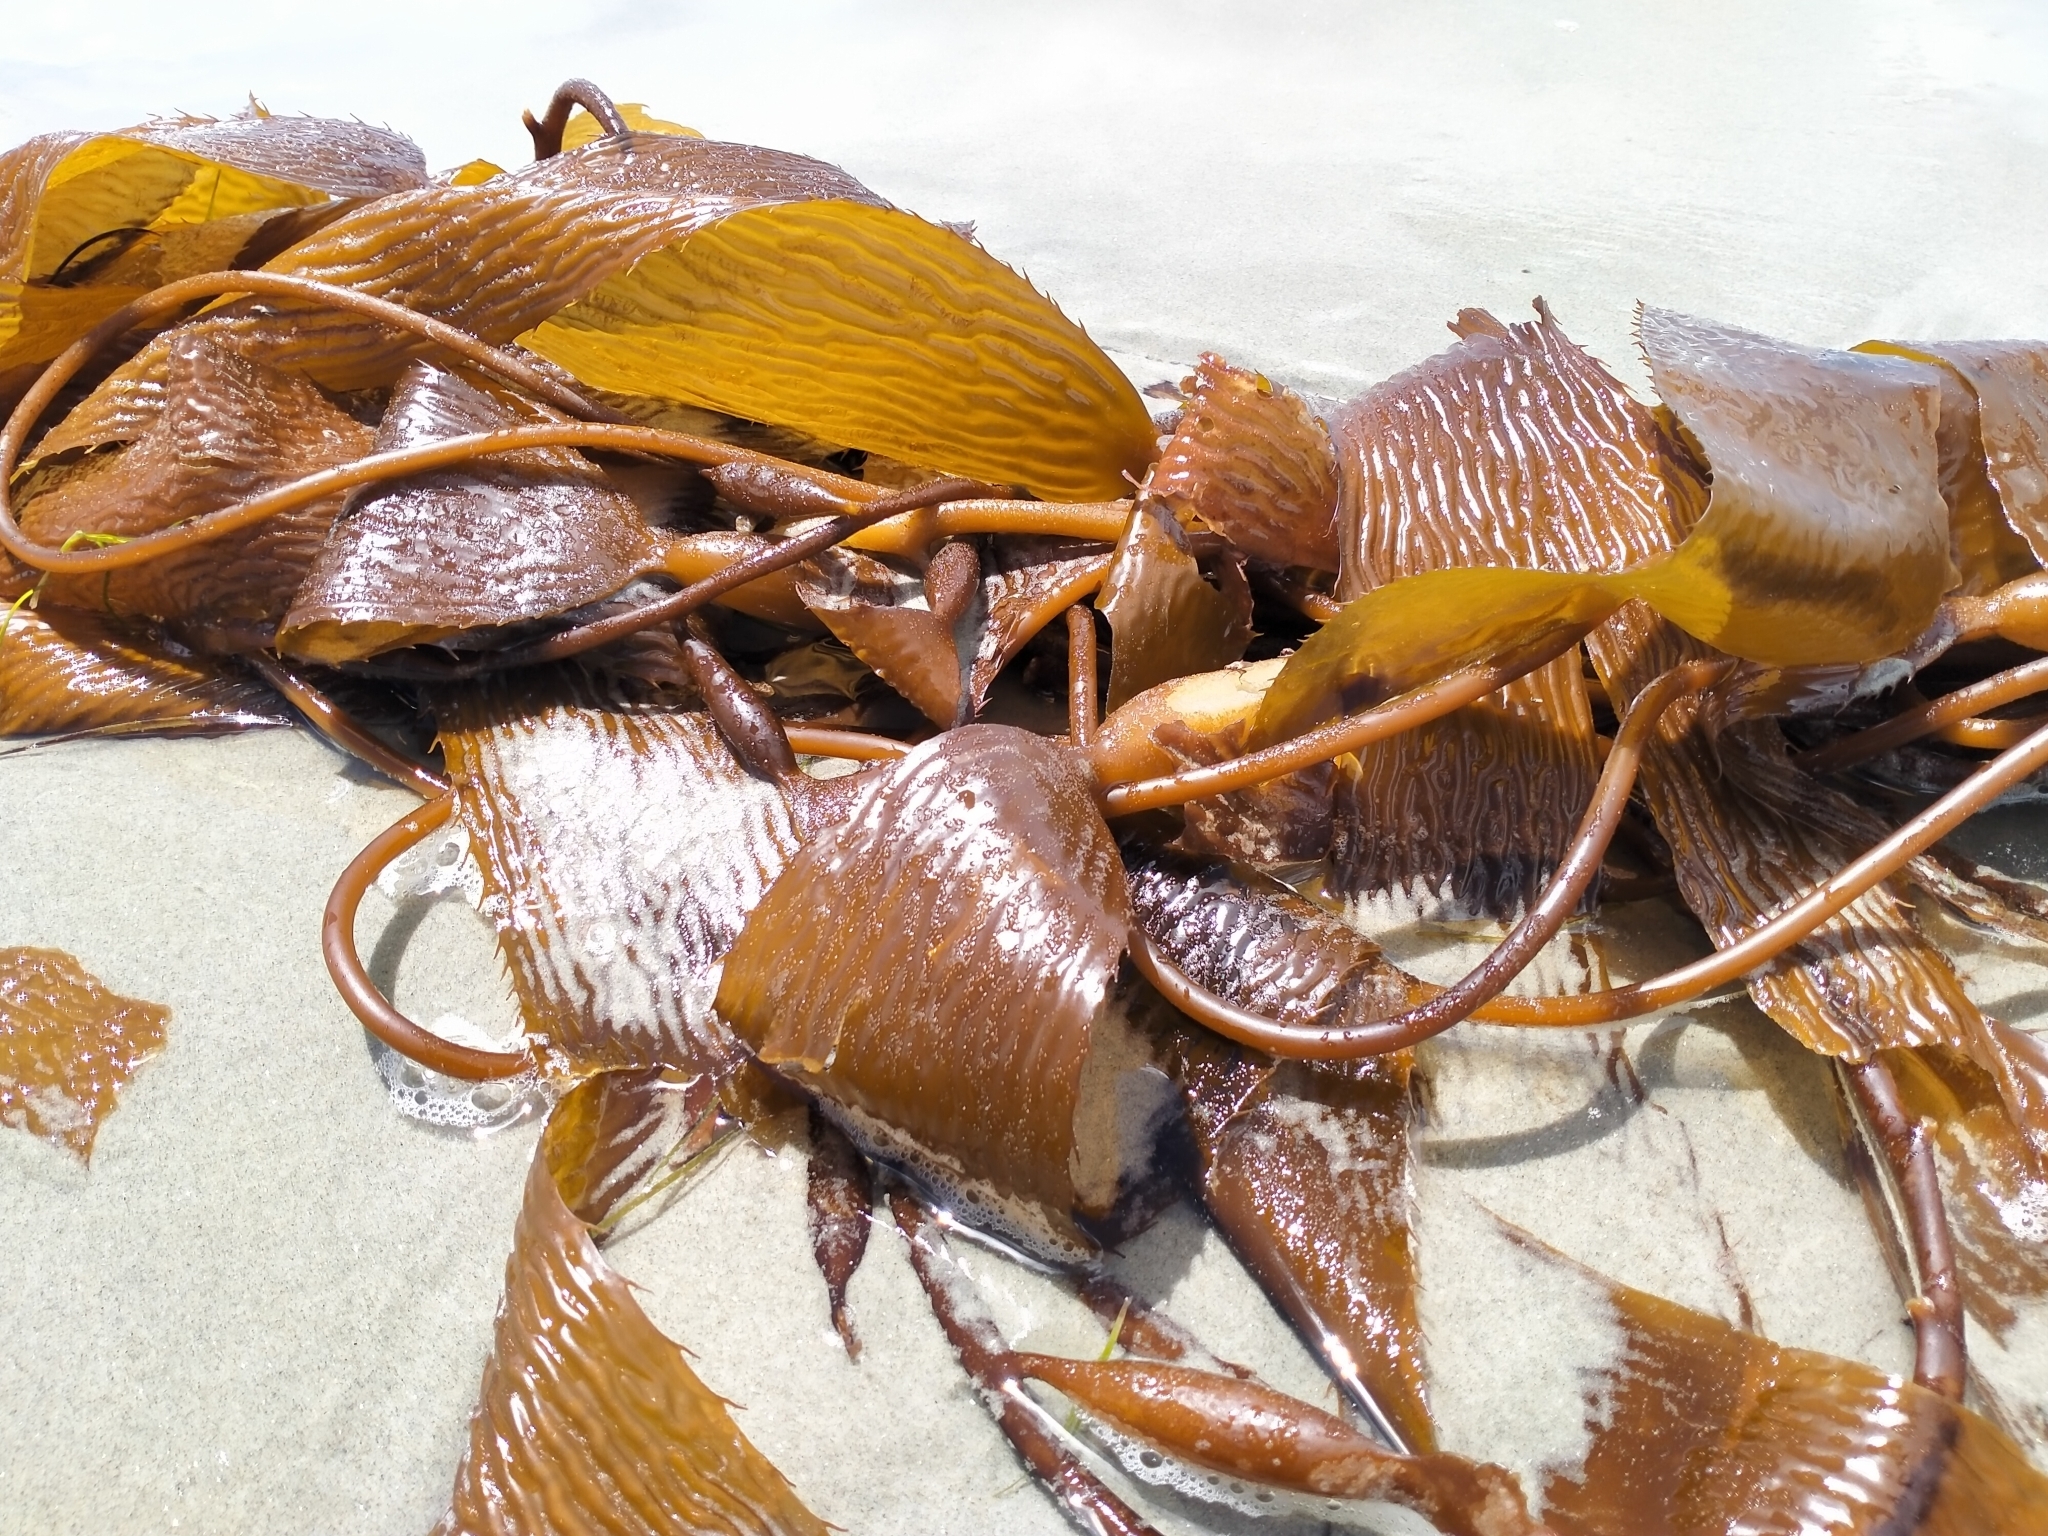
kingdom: Chromista
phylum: Ochrophyta
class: Phaeophyceae
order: Laminariales
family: Laminariaceae
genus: Macrocystis
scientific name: Macrocystis pyrifera
